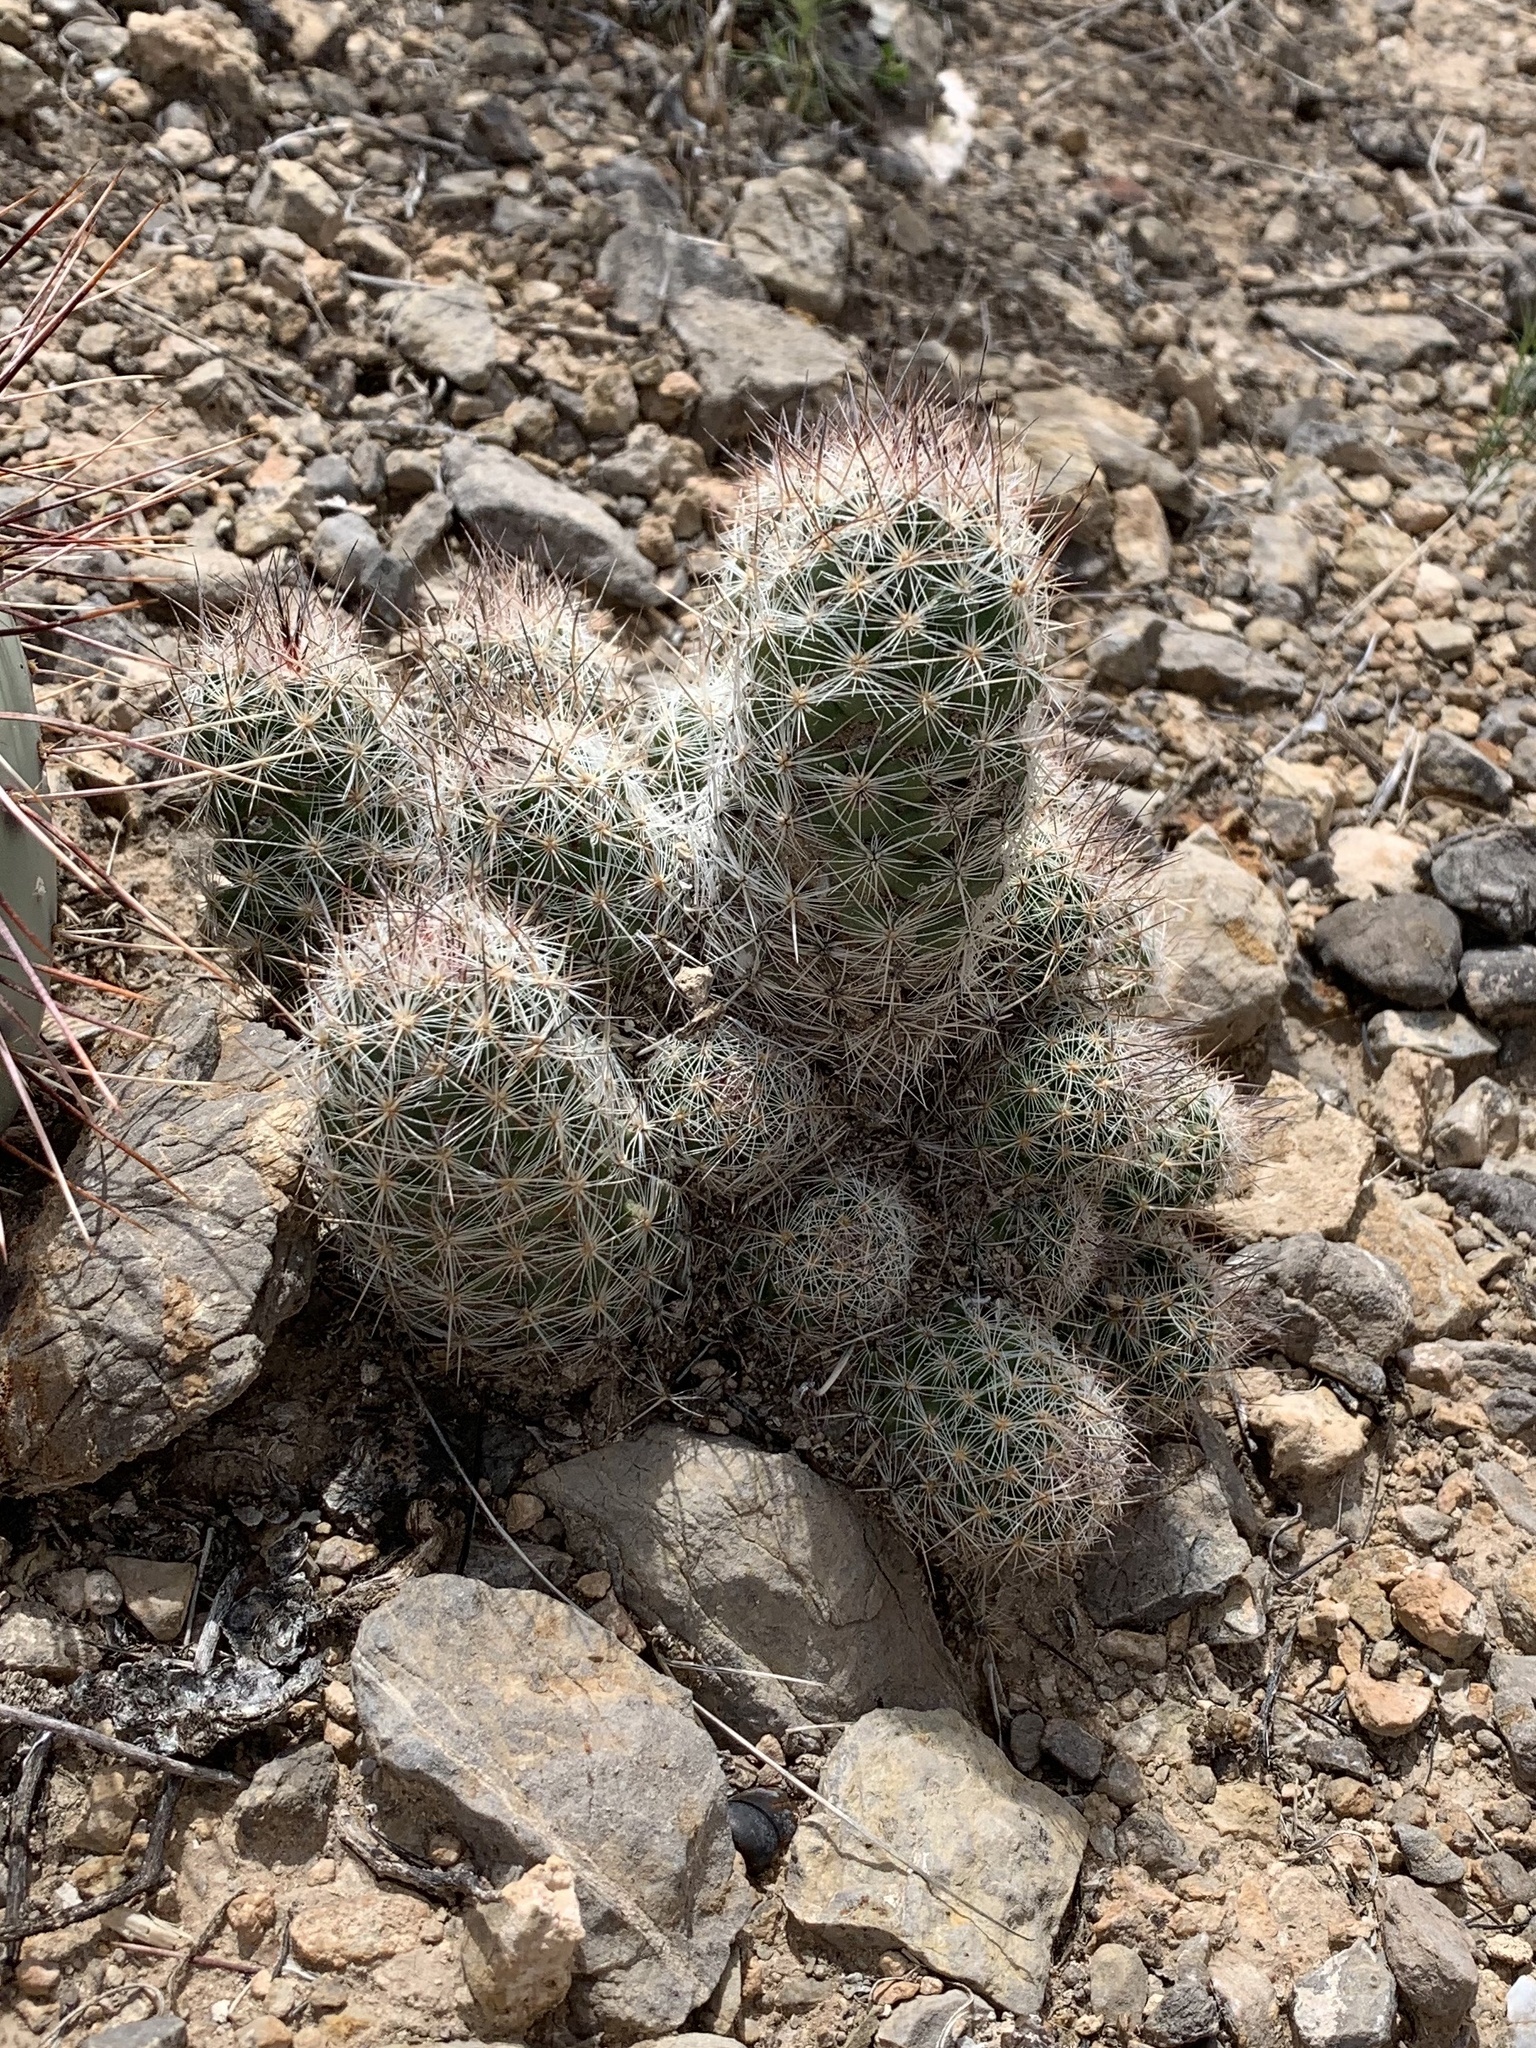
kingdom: Plantae
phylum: Tracheophyta
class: Magnoliopsida
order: Caryophyllales
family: Cactaceae
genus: Pelecyphora
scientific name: Pelecyphora tuberculosa
